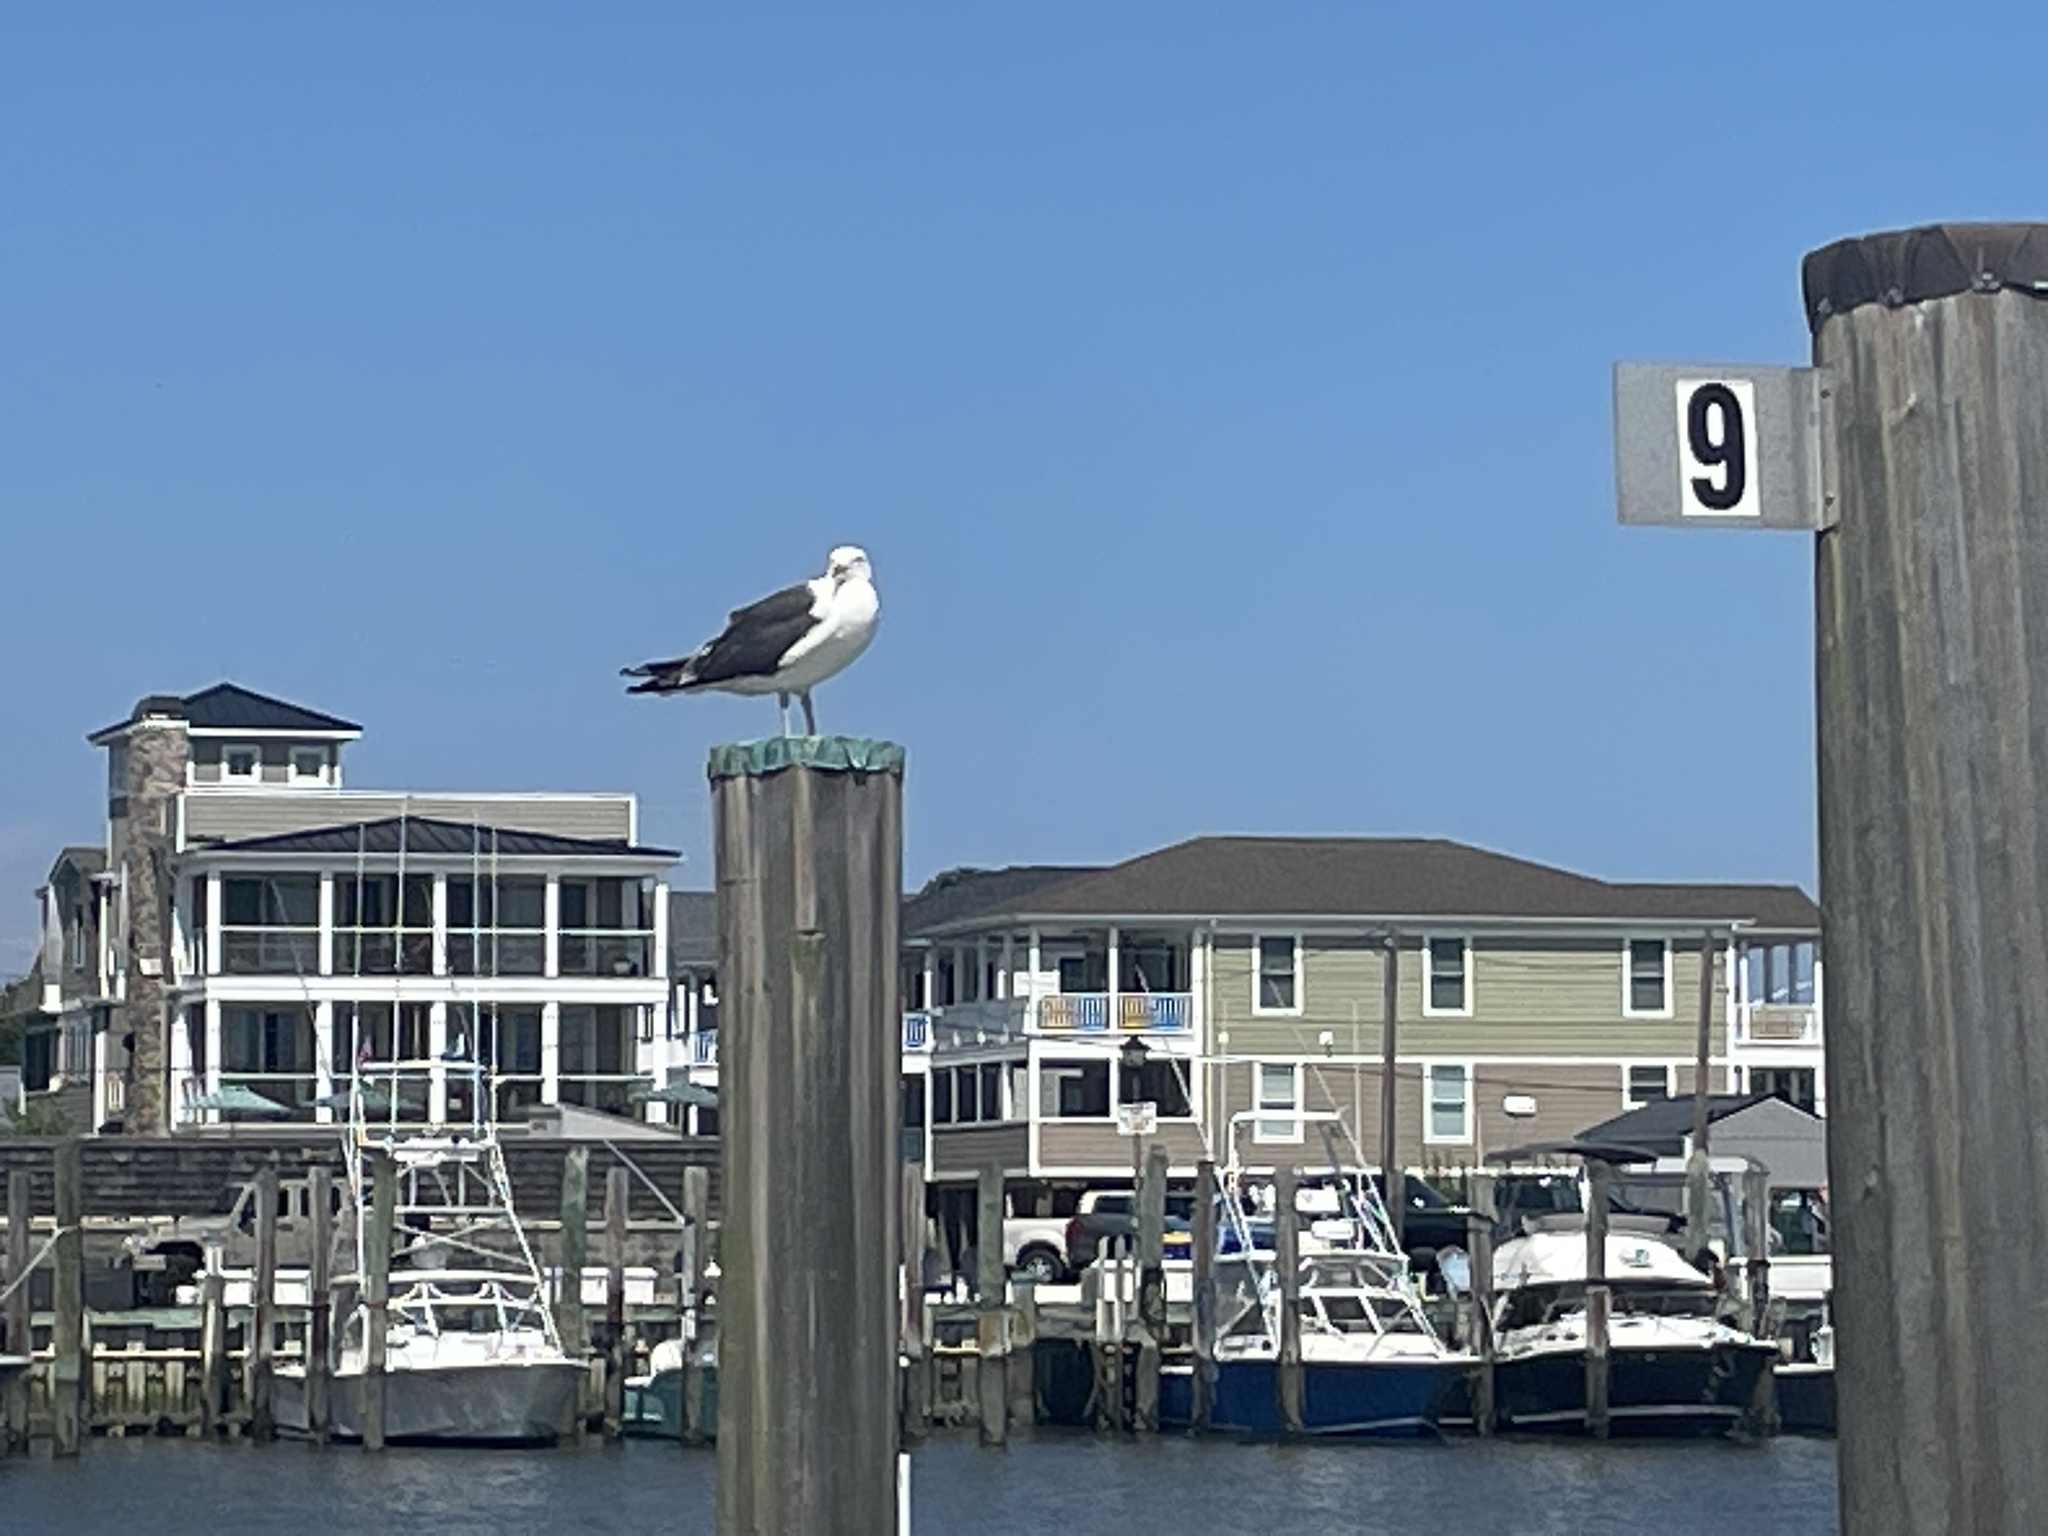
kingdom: Animalia
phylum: Chordata
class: Aves
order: Charadriiformes
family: Laridae
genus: Larus
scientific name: Larus marinus
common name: Great black-backed gull
